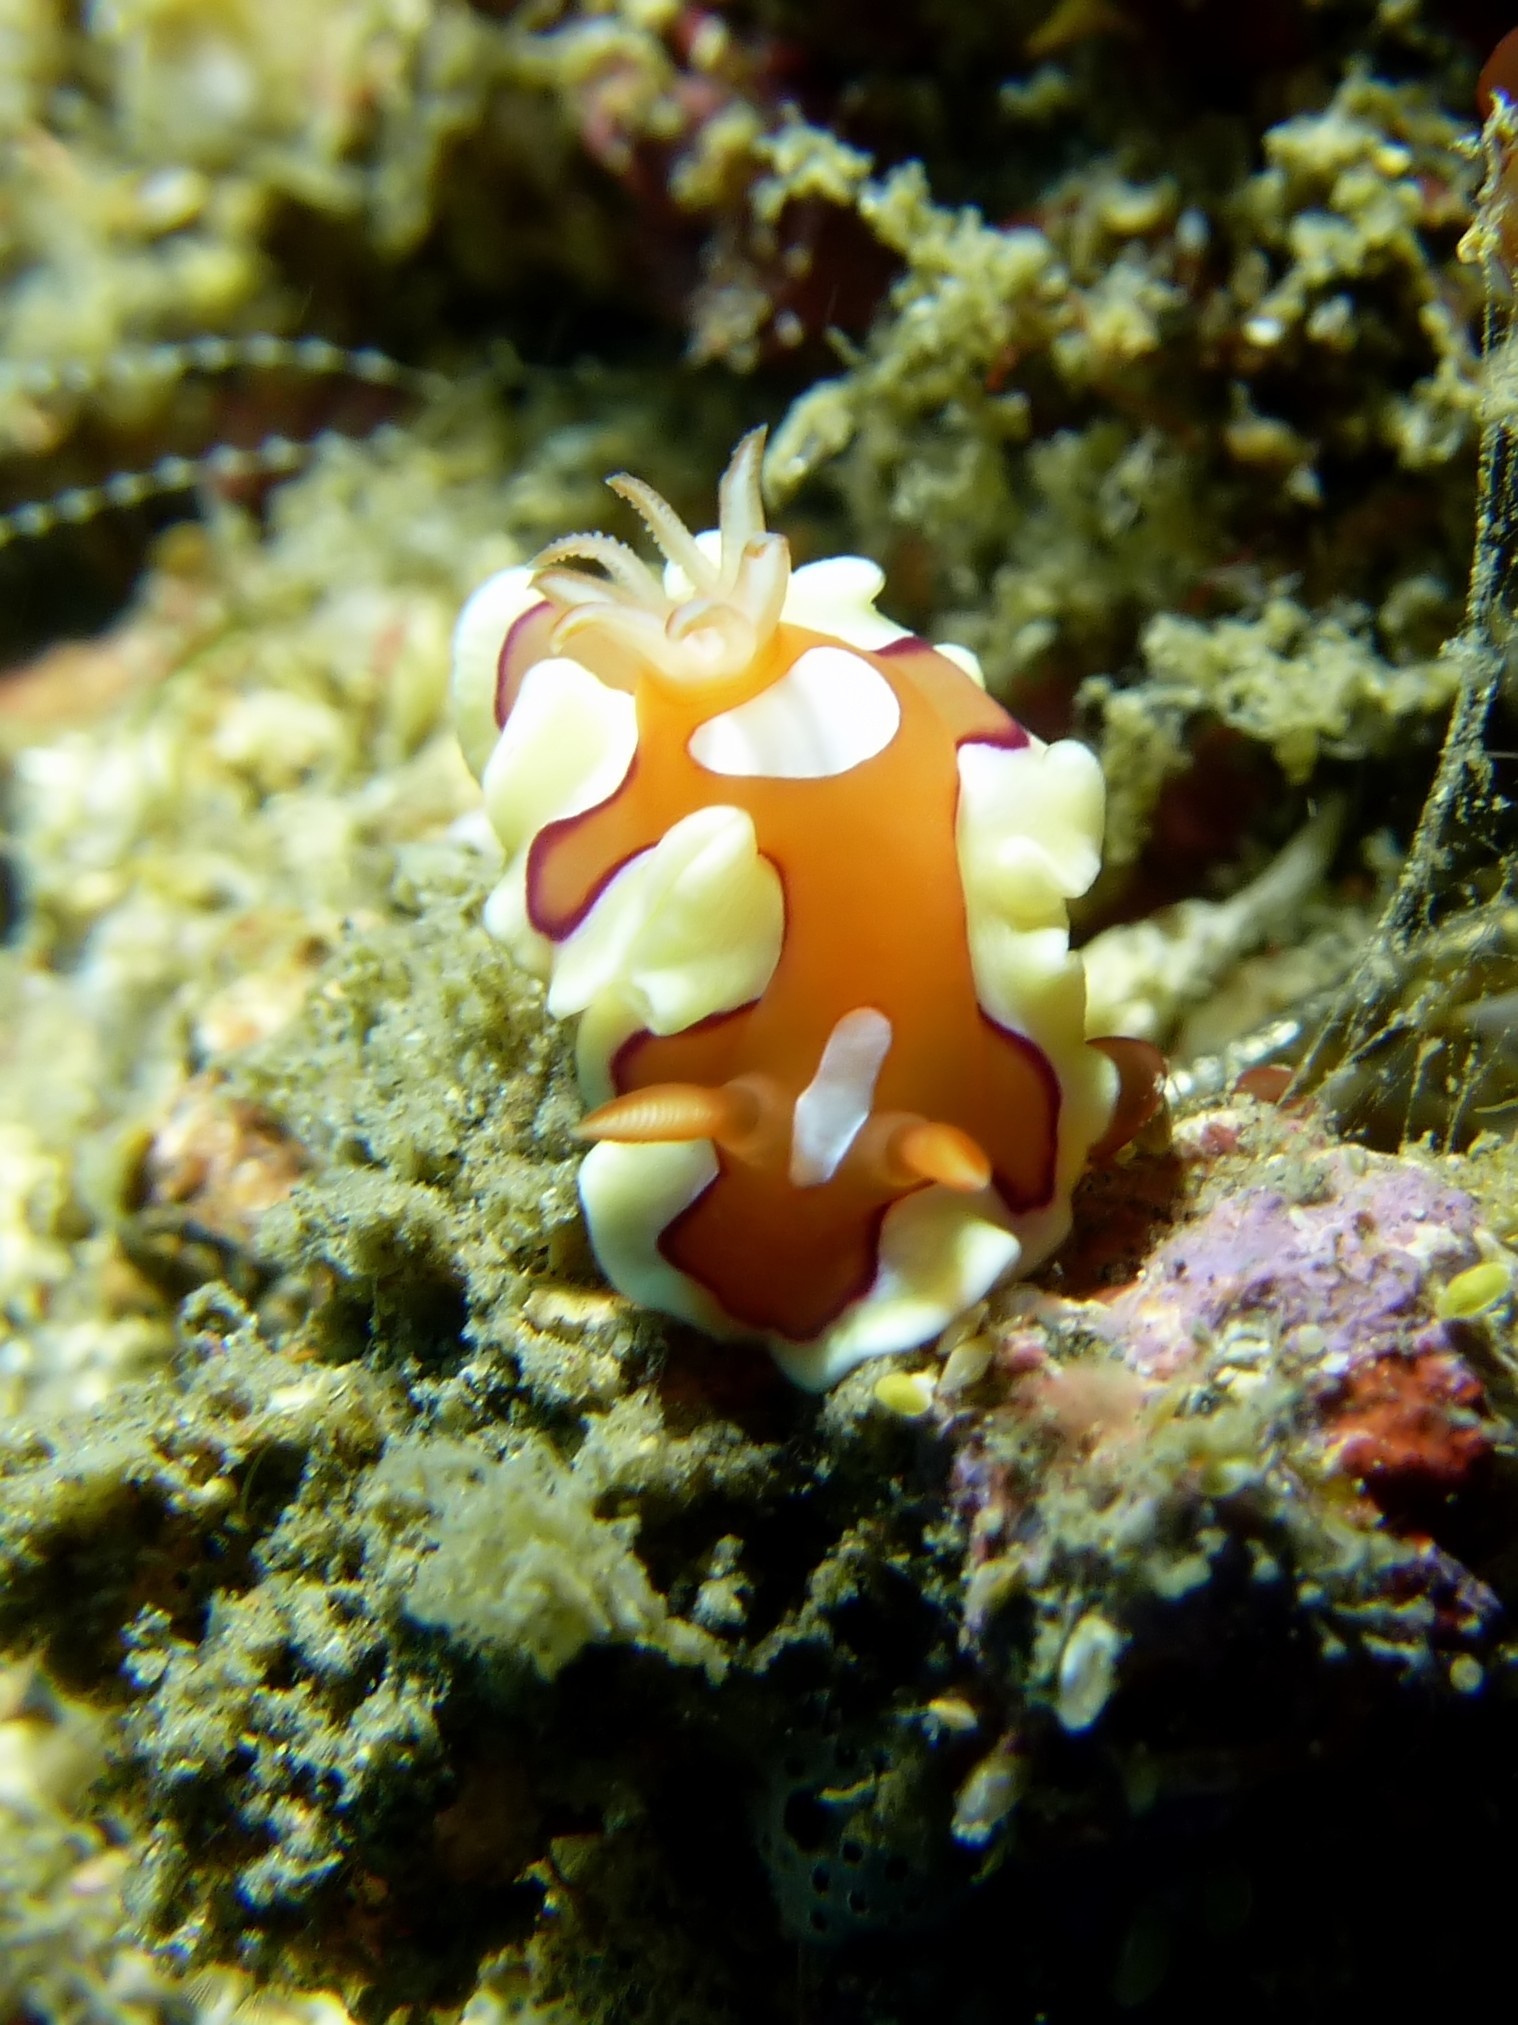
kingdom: Animalia
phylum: Mollusca
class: Gastropoda
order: Nudibranchia
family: Chromodorididae
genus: Mexichromis
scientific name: Mexichromis pusilla
